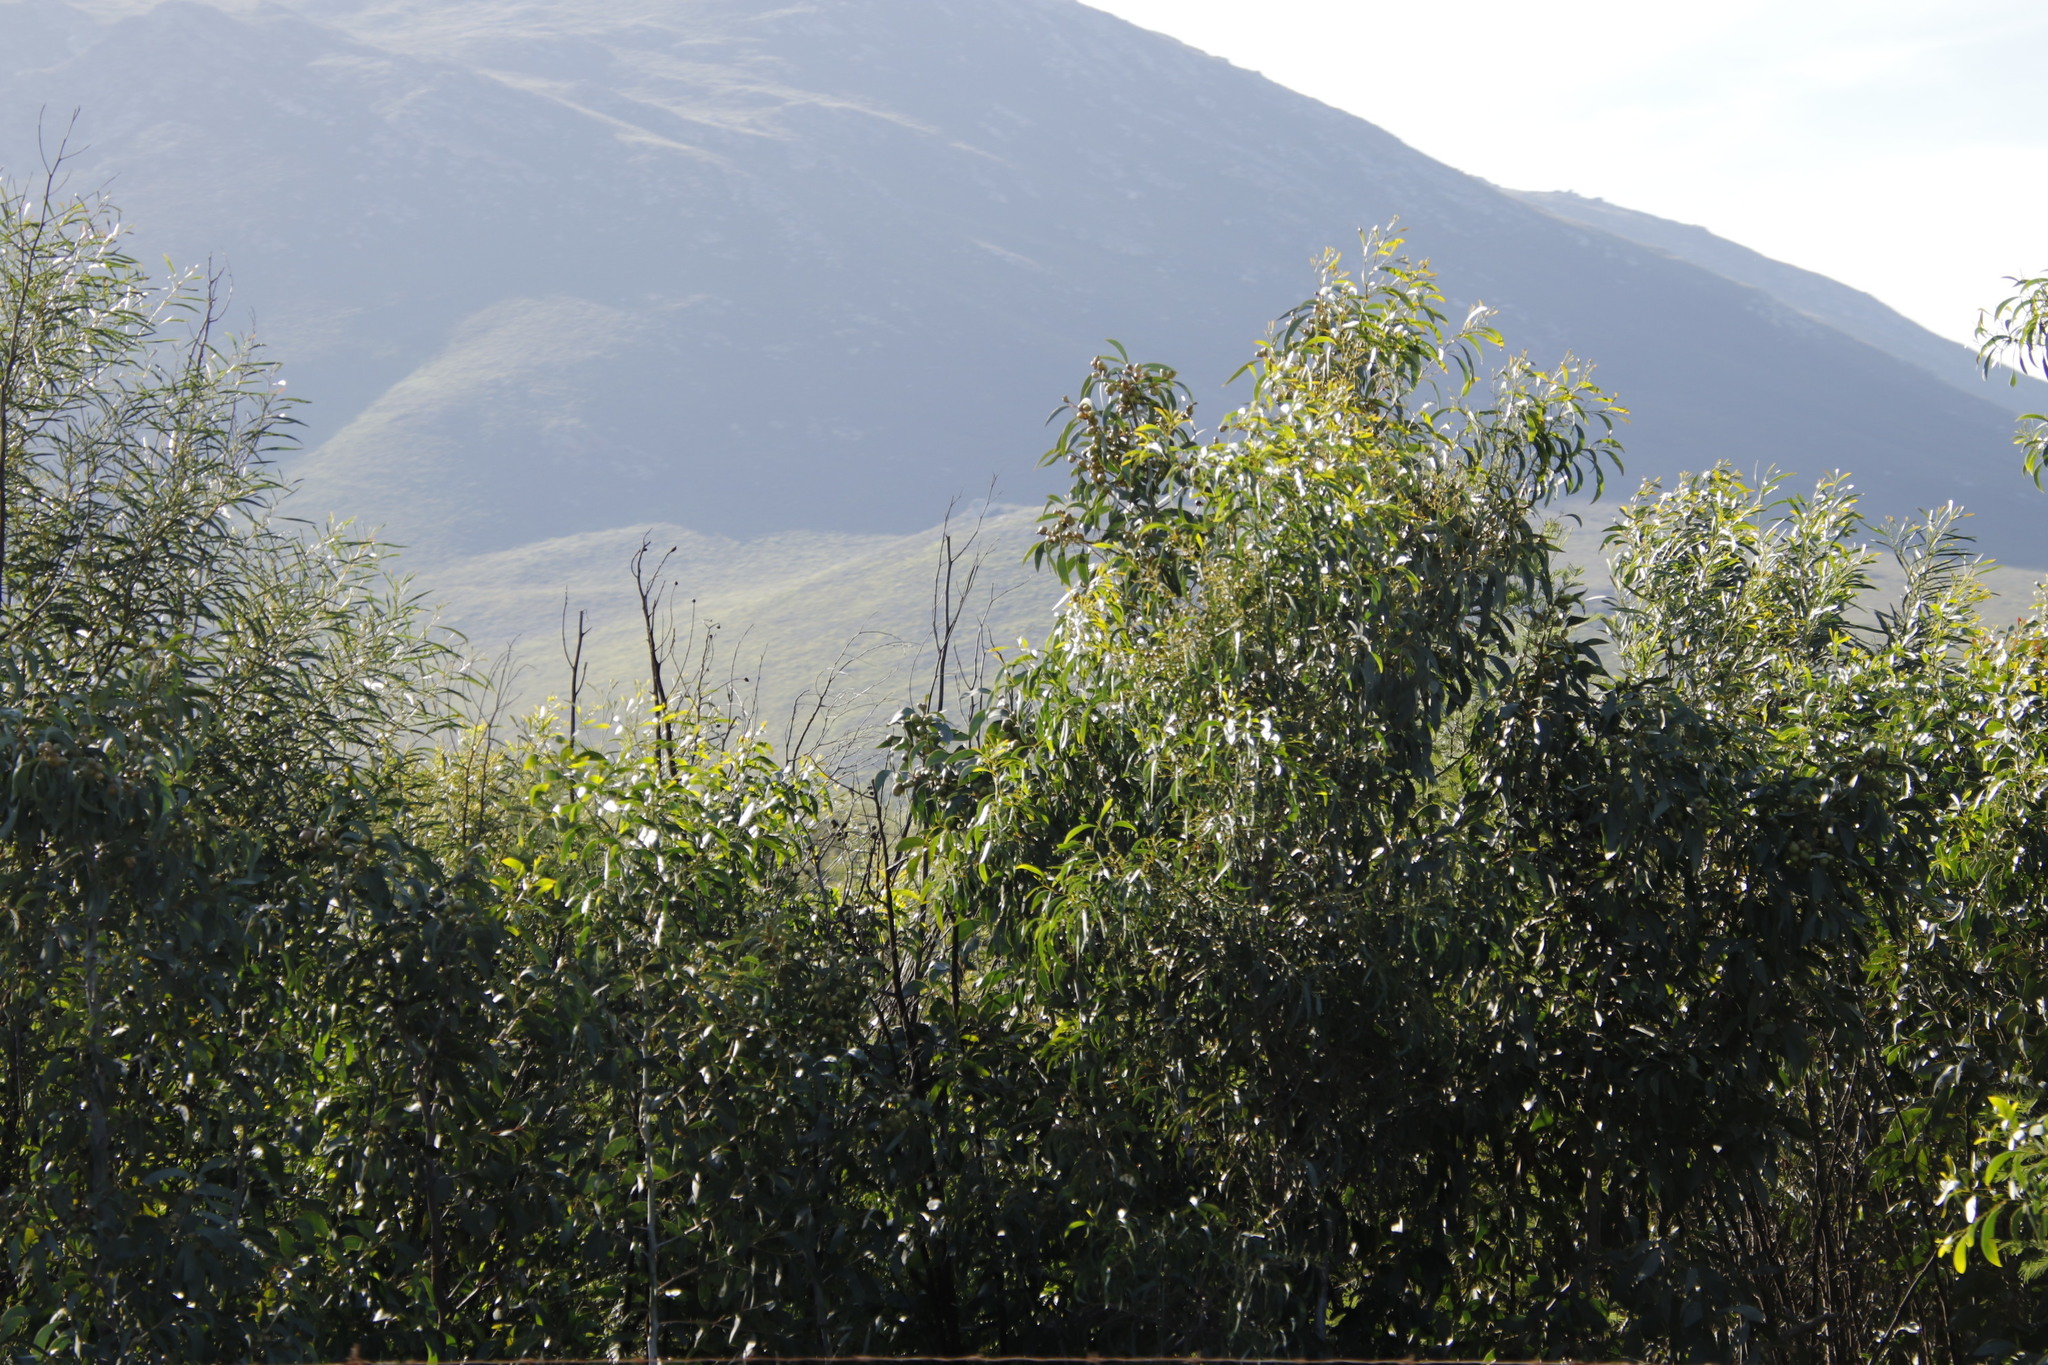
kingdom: Plantae
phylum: Tracheophyta
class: Magnoliopsida
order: Fabales
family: Fabaceae
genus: Acacia
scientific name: Acacia pycnantha
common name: Golden wattle
